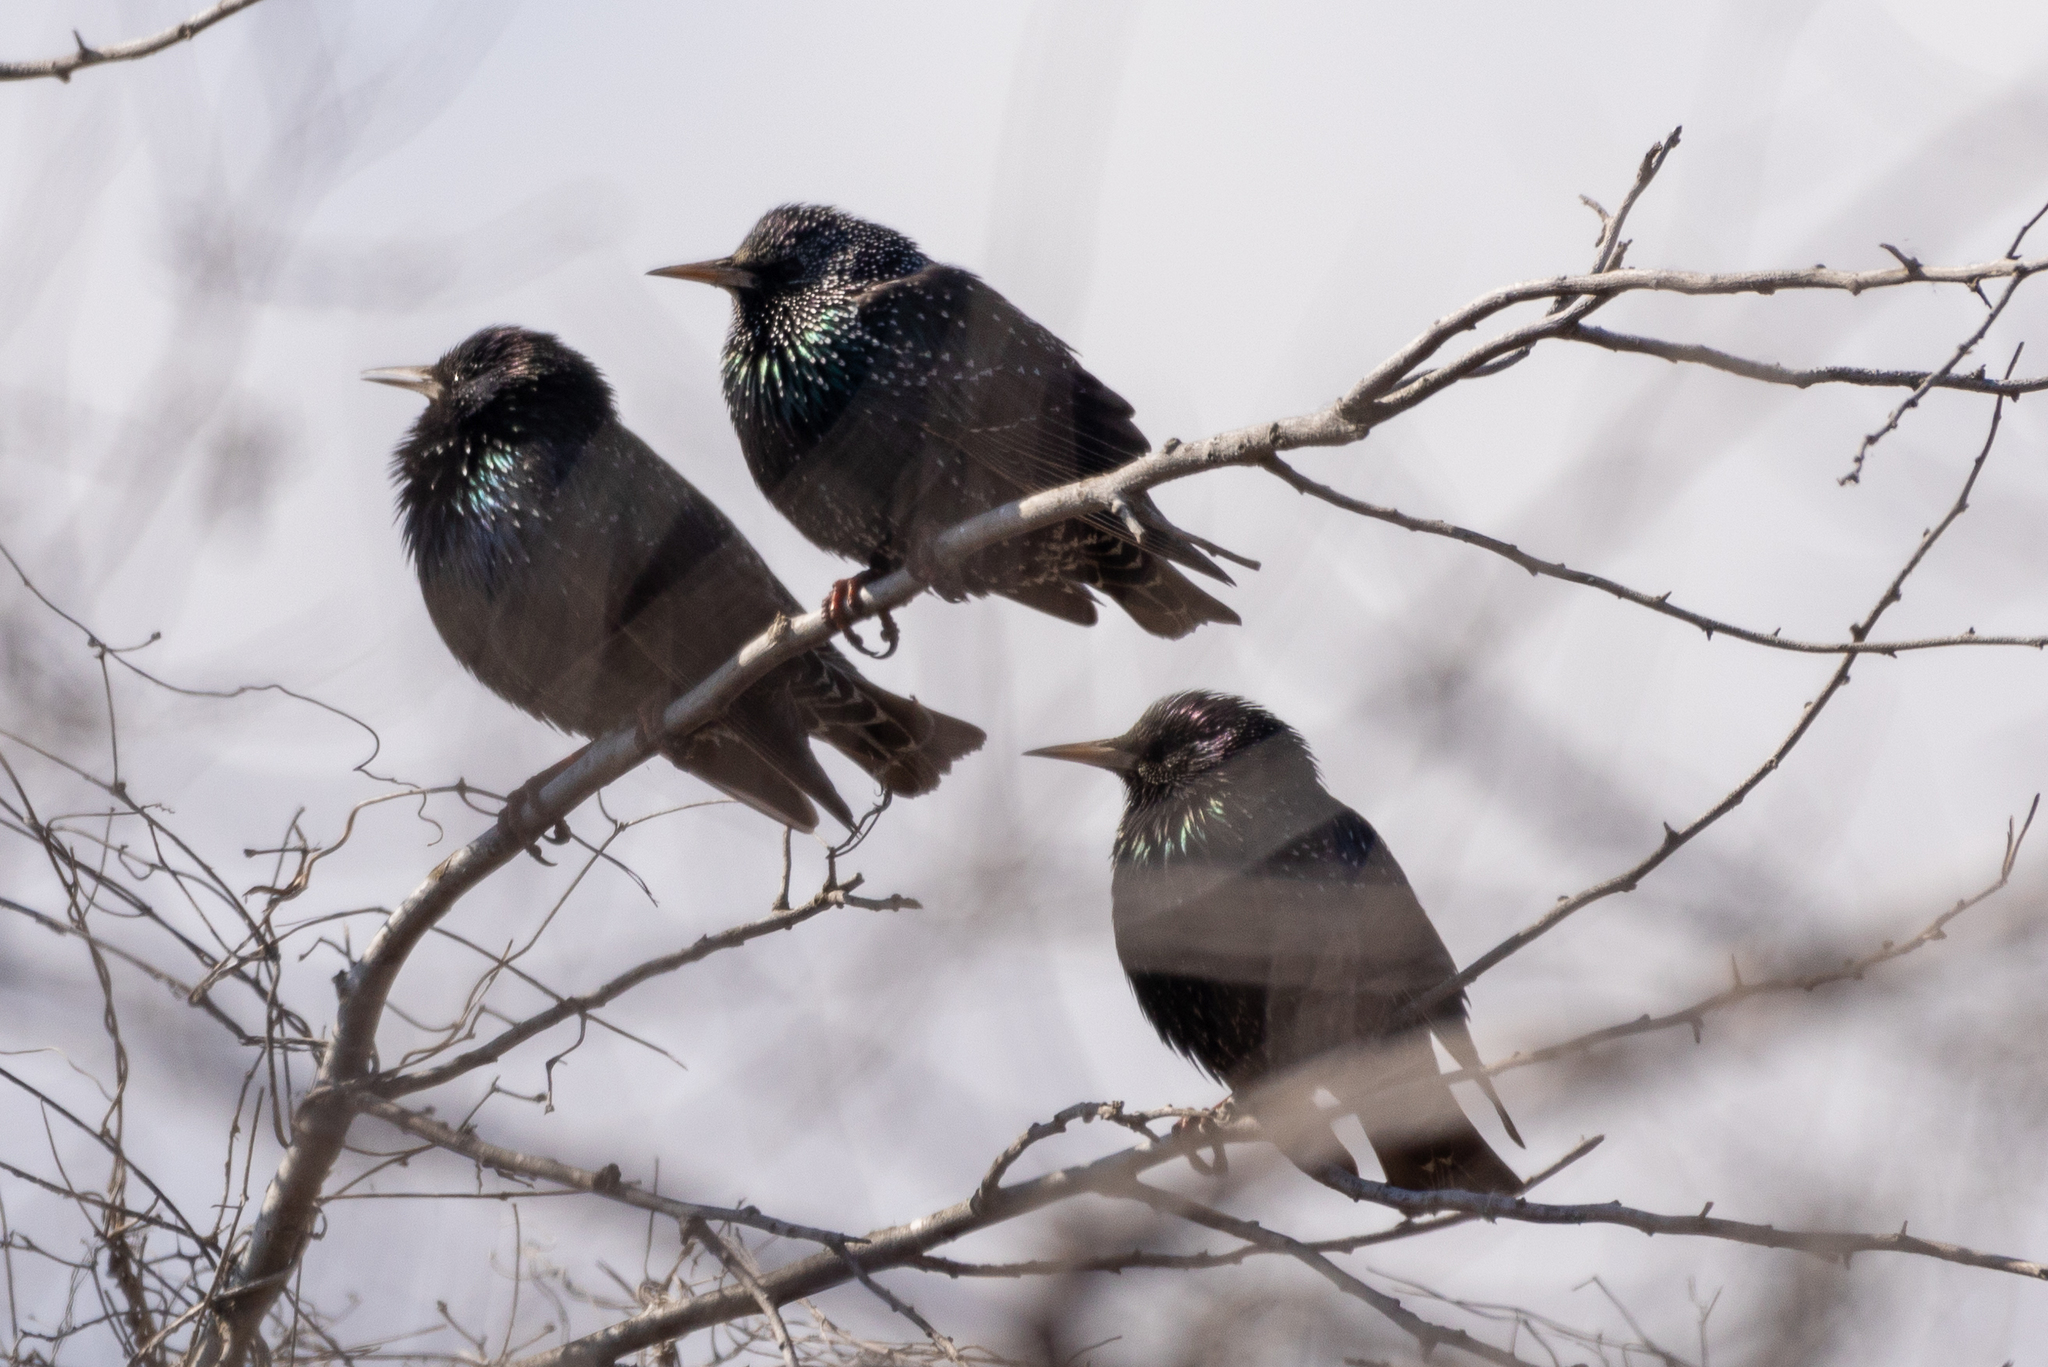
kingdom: Animalia
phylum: Chordata
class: Aves
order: Passeriformes
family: Sturnidae
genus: Sturnus
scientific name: Sturnus vulgaris
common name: Common starling
